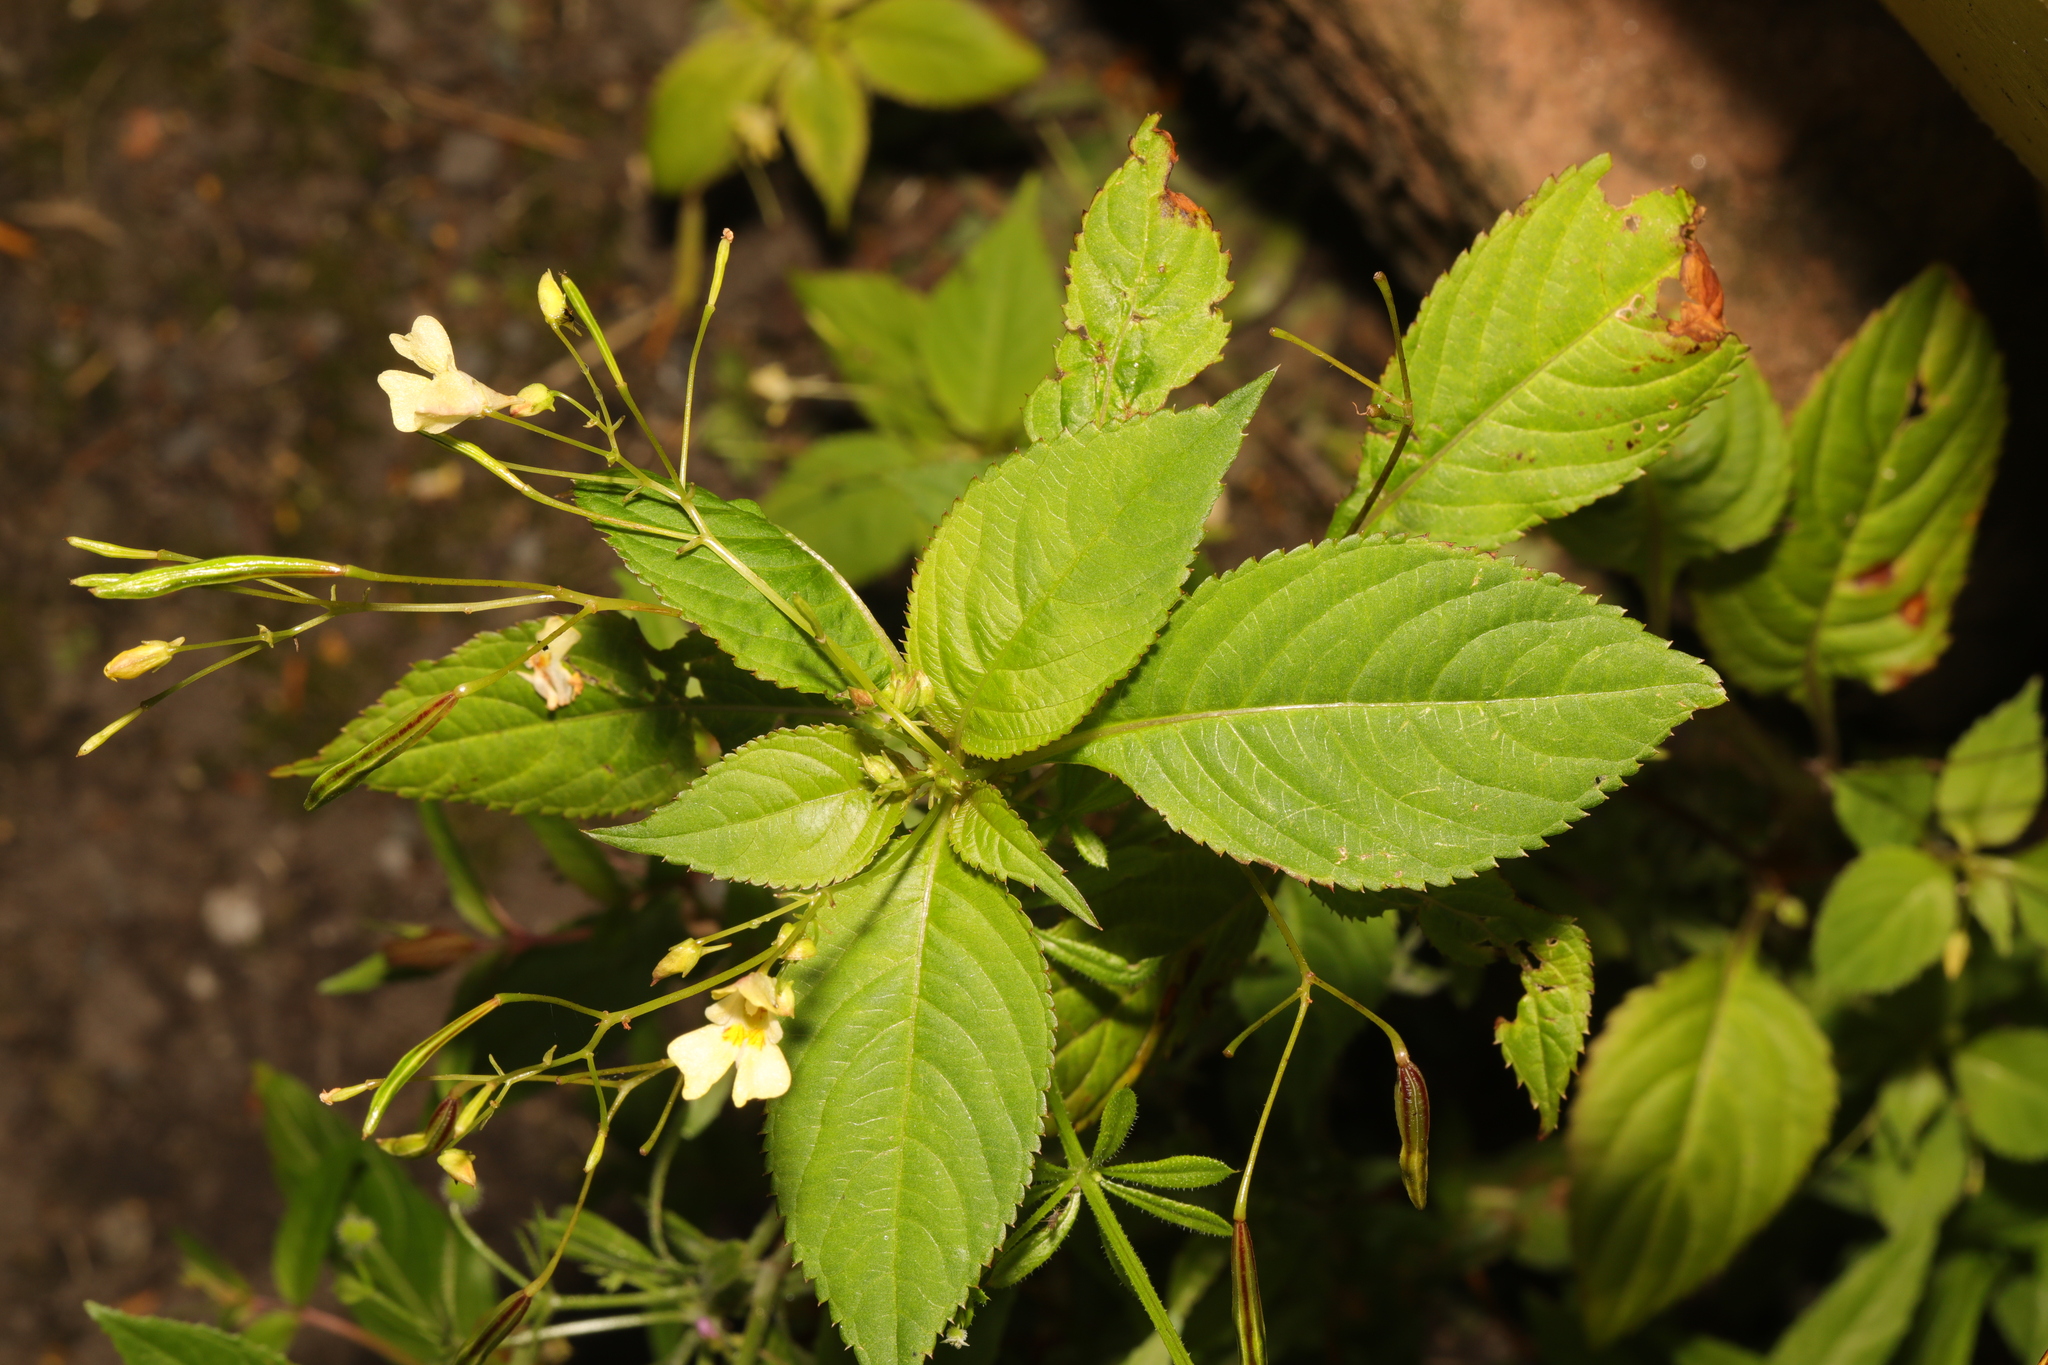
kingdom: Plantae
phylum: Tracheophyta
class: Magnoliopsida
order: Ericales
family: Balsaminaceae
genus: Impatiens
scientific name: Impatiens parviflora
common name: Small balsam
